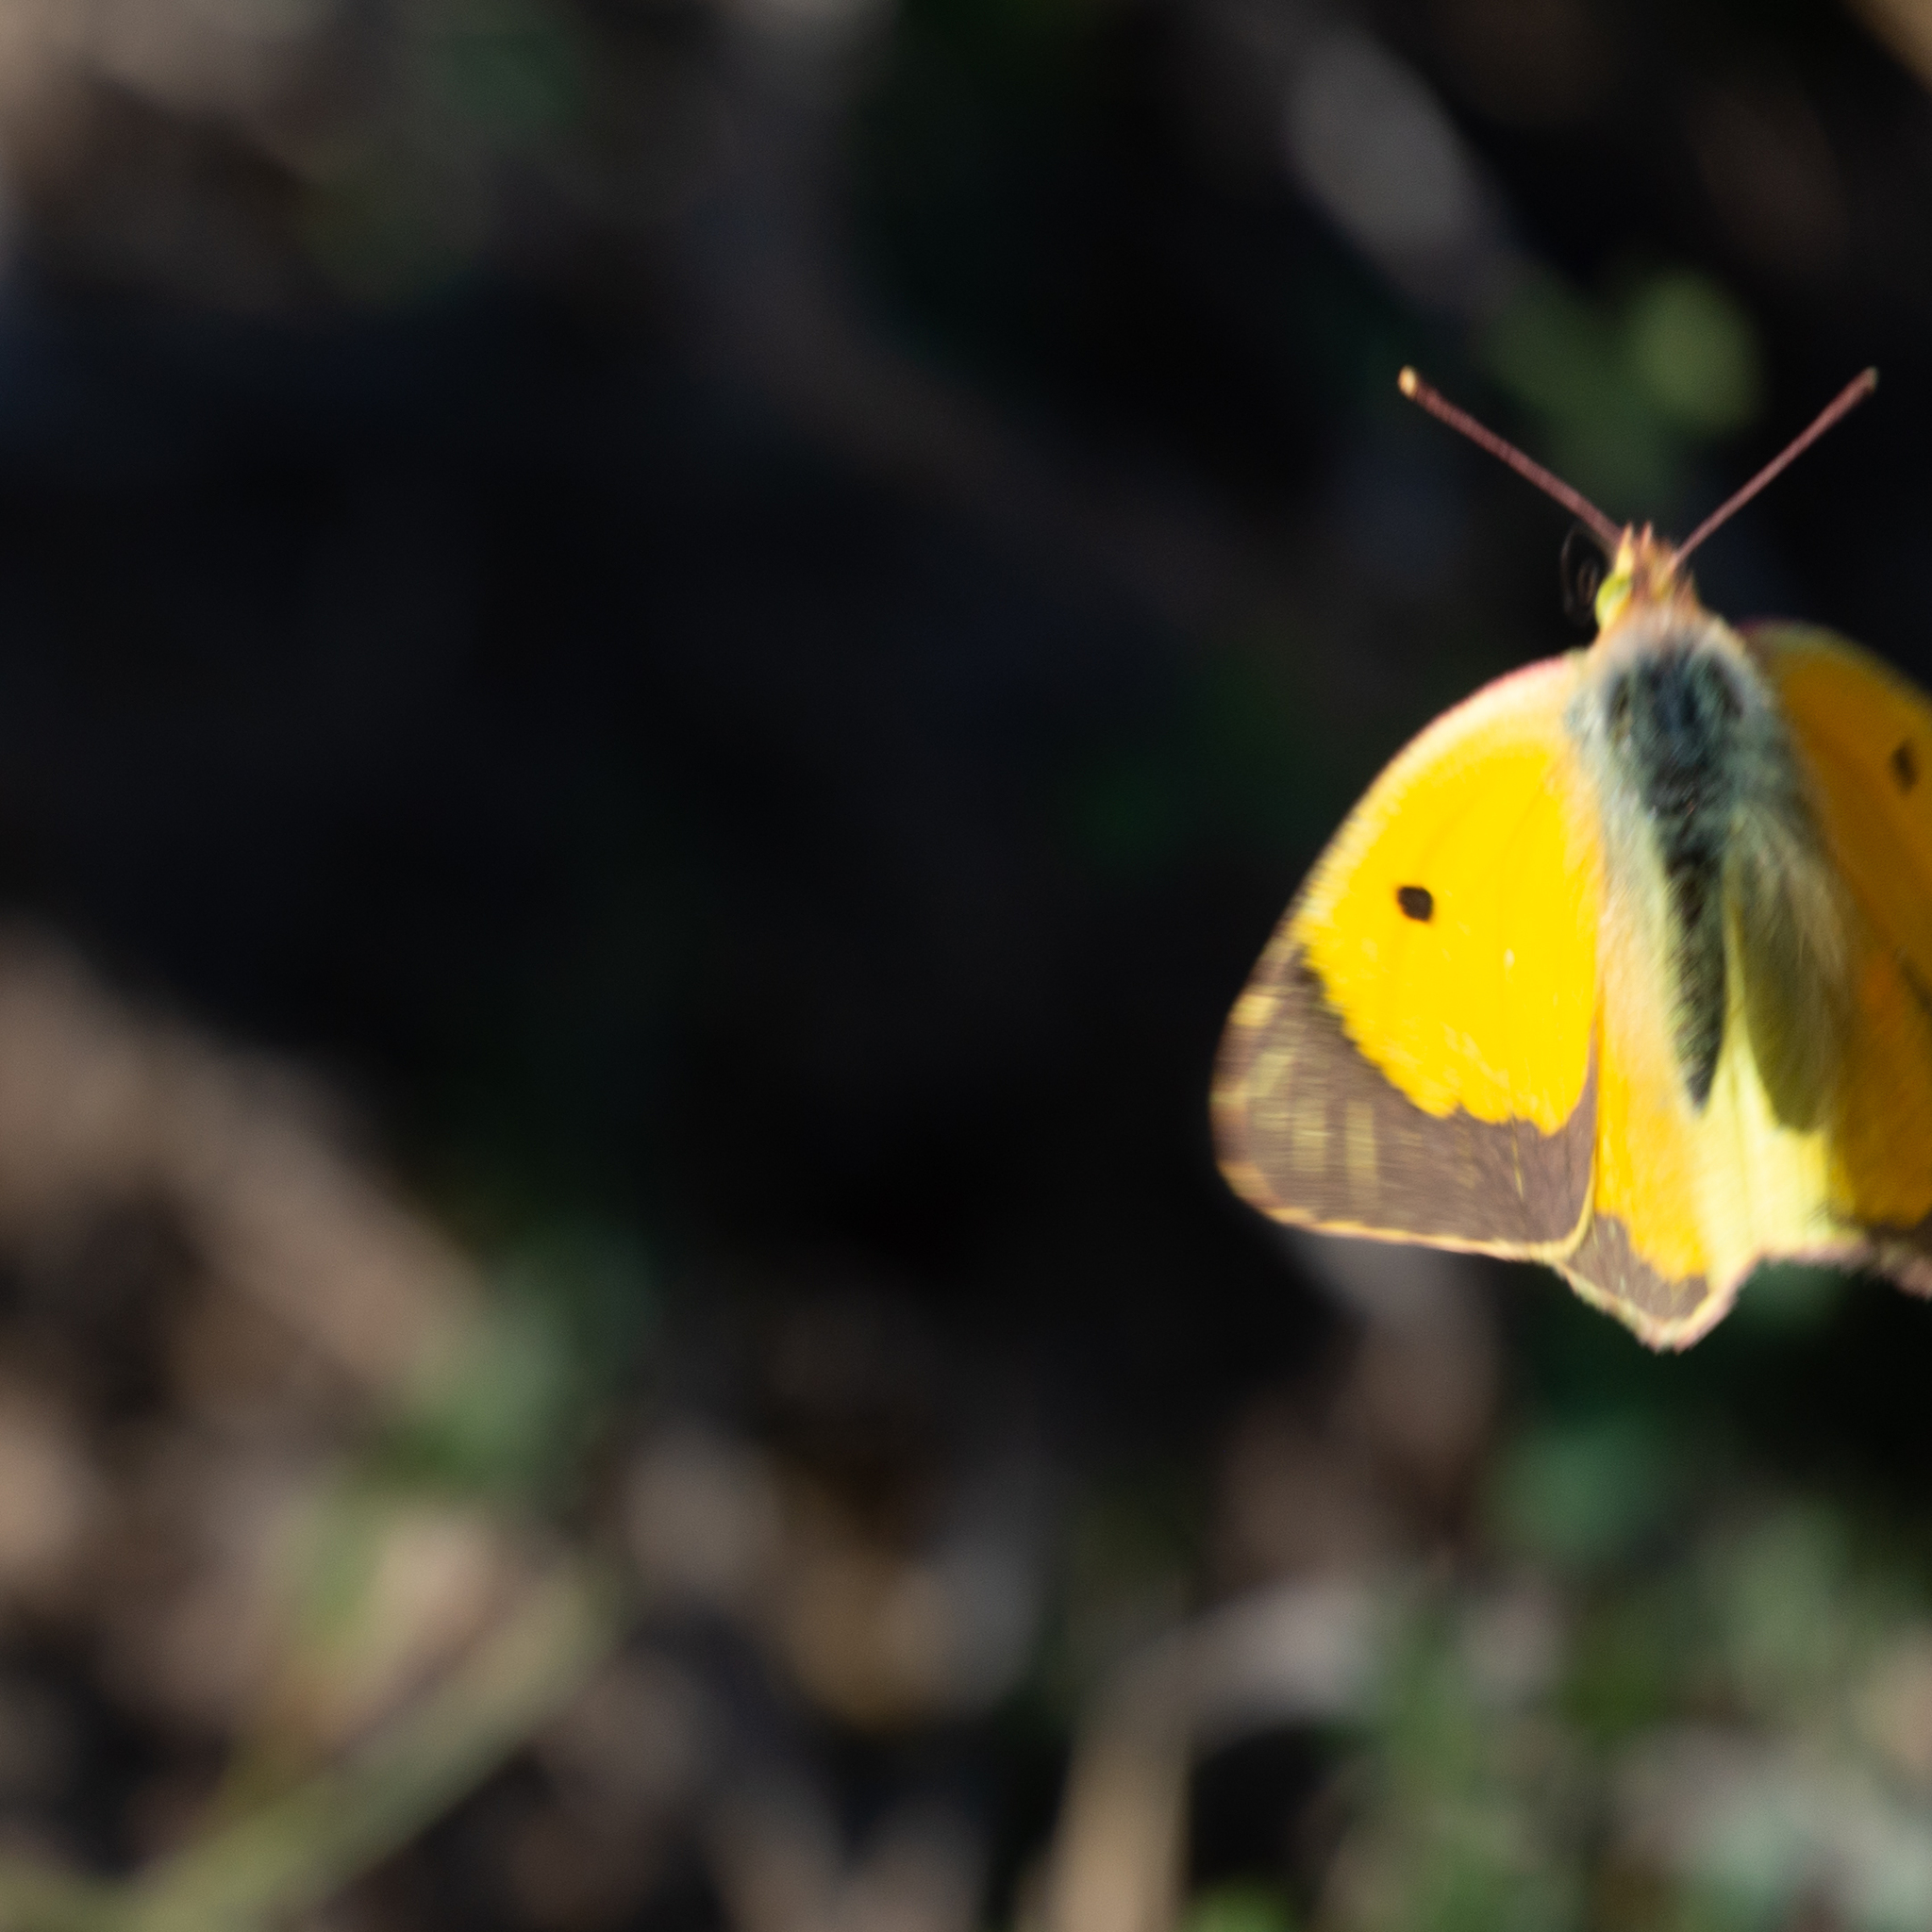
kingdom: Animalia
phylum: Arthropoda
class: Insecta
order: Lepidoptera
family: Pieridae
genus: Colias
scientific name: Colias croceus
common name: Clouded yellow
